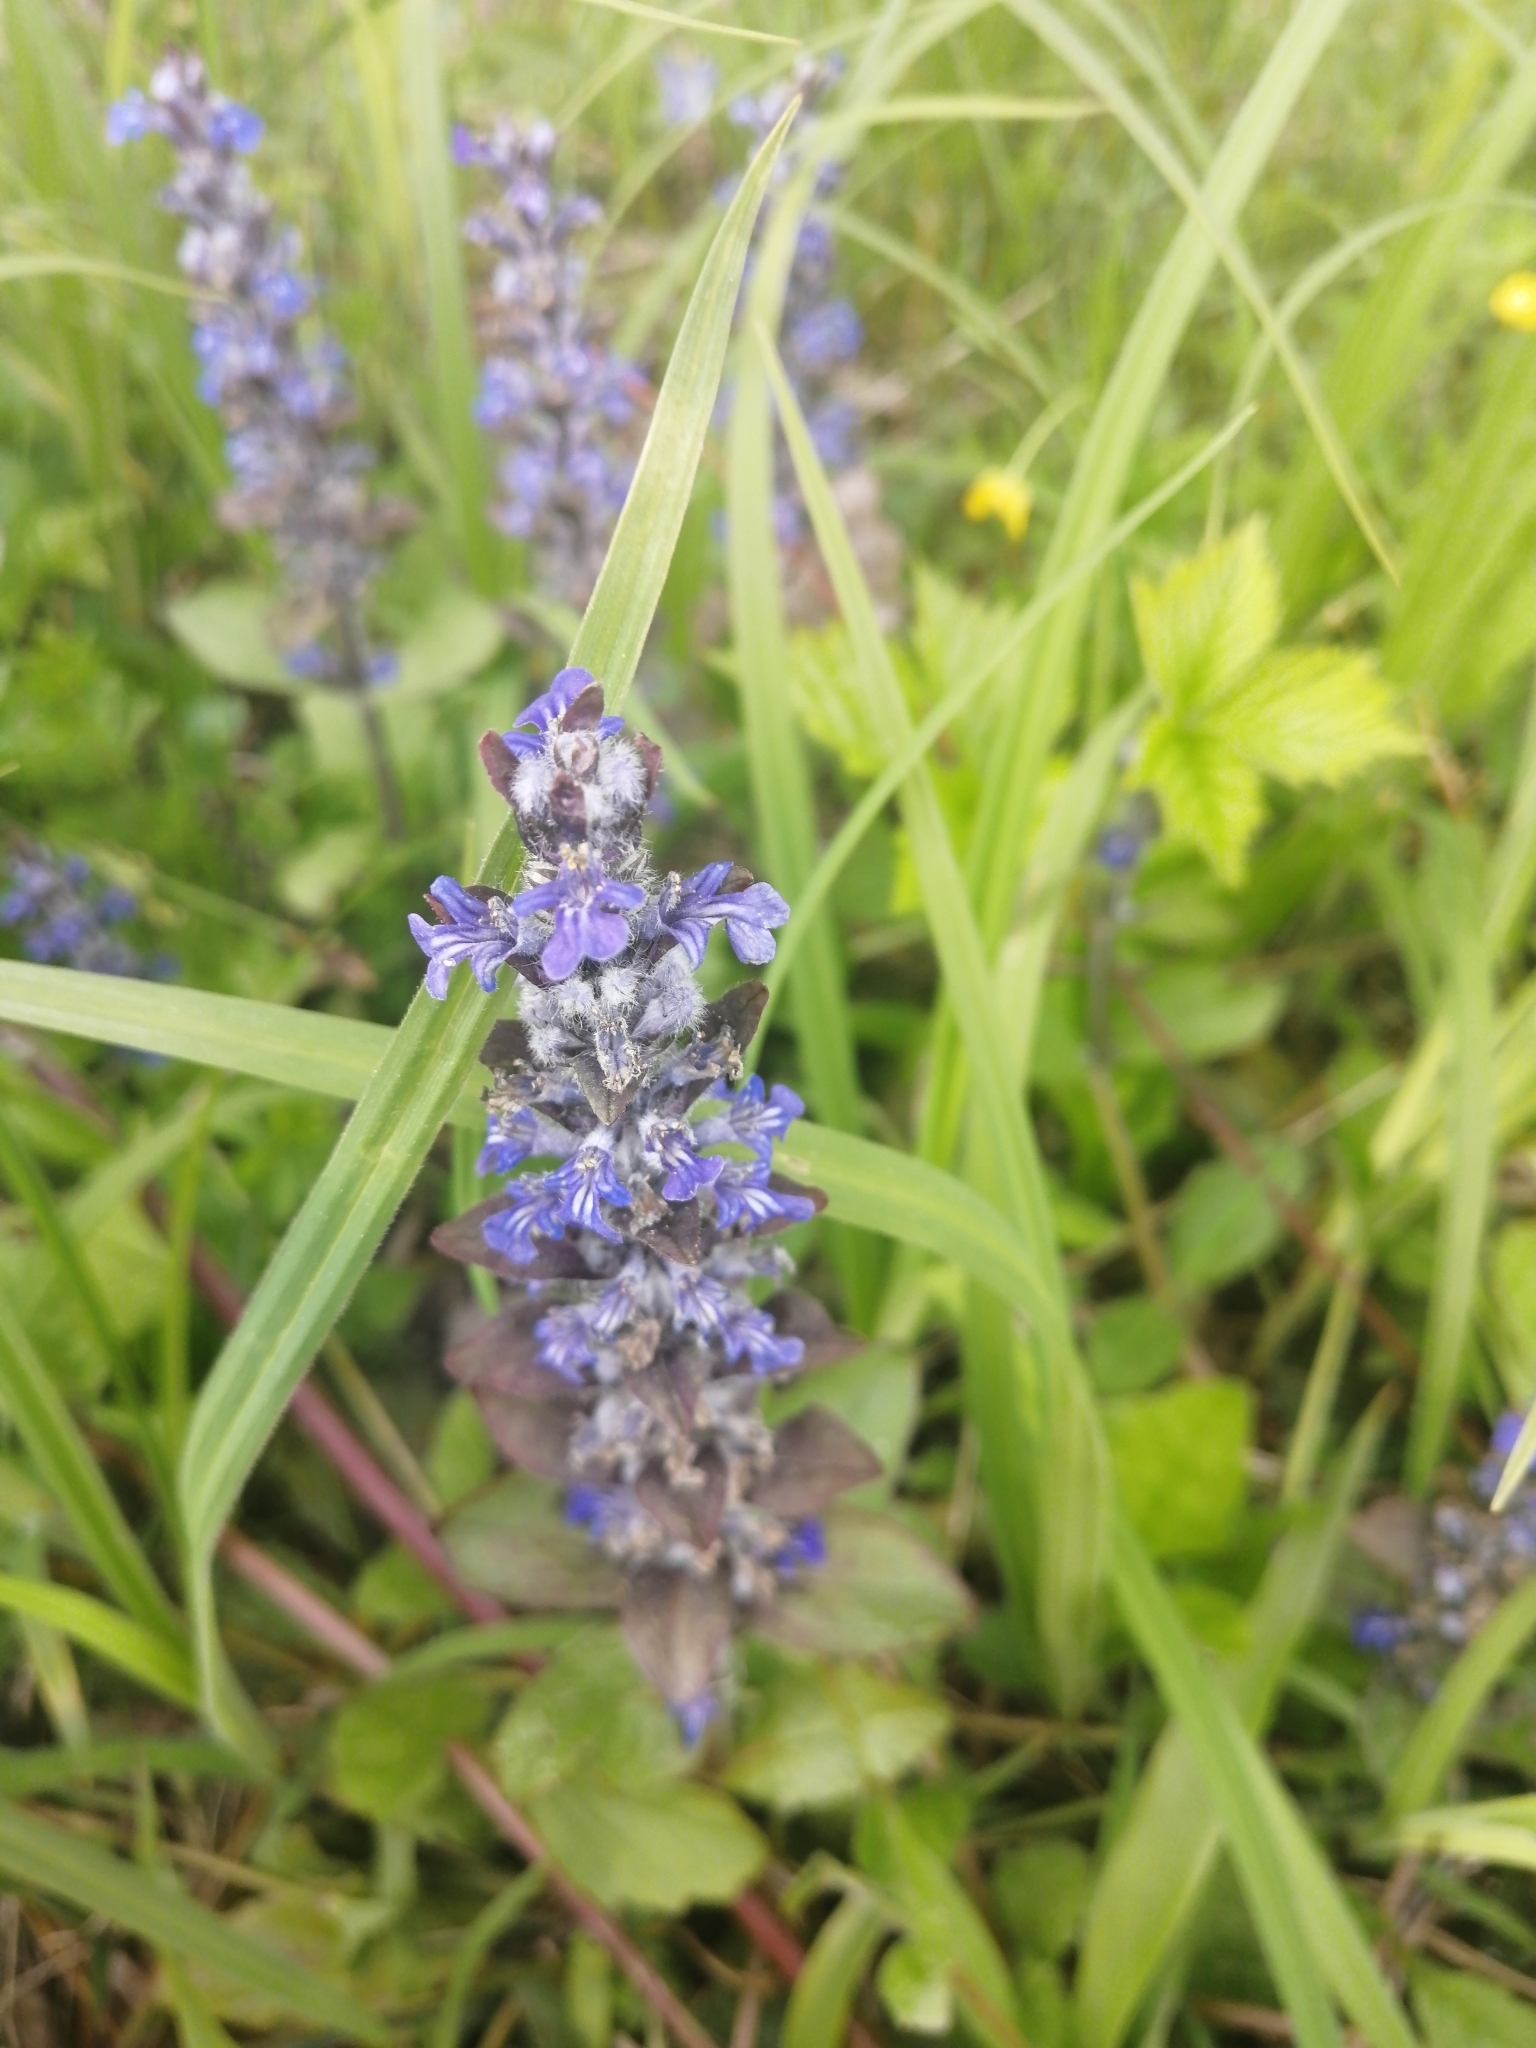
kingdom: Plantae
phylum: Tracheophyta
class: Magnoliopsida
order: Lamiales
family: Lamiaceae
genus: Ajuga
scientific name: Ajuga reptans
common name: Bugle
